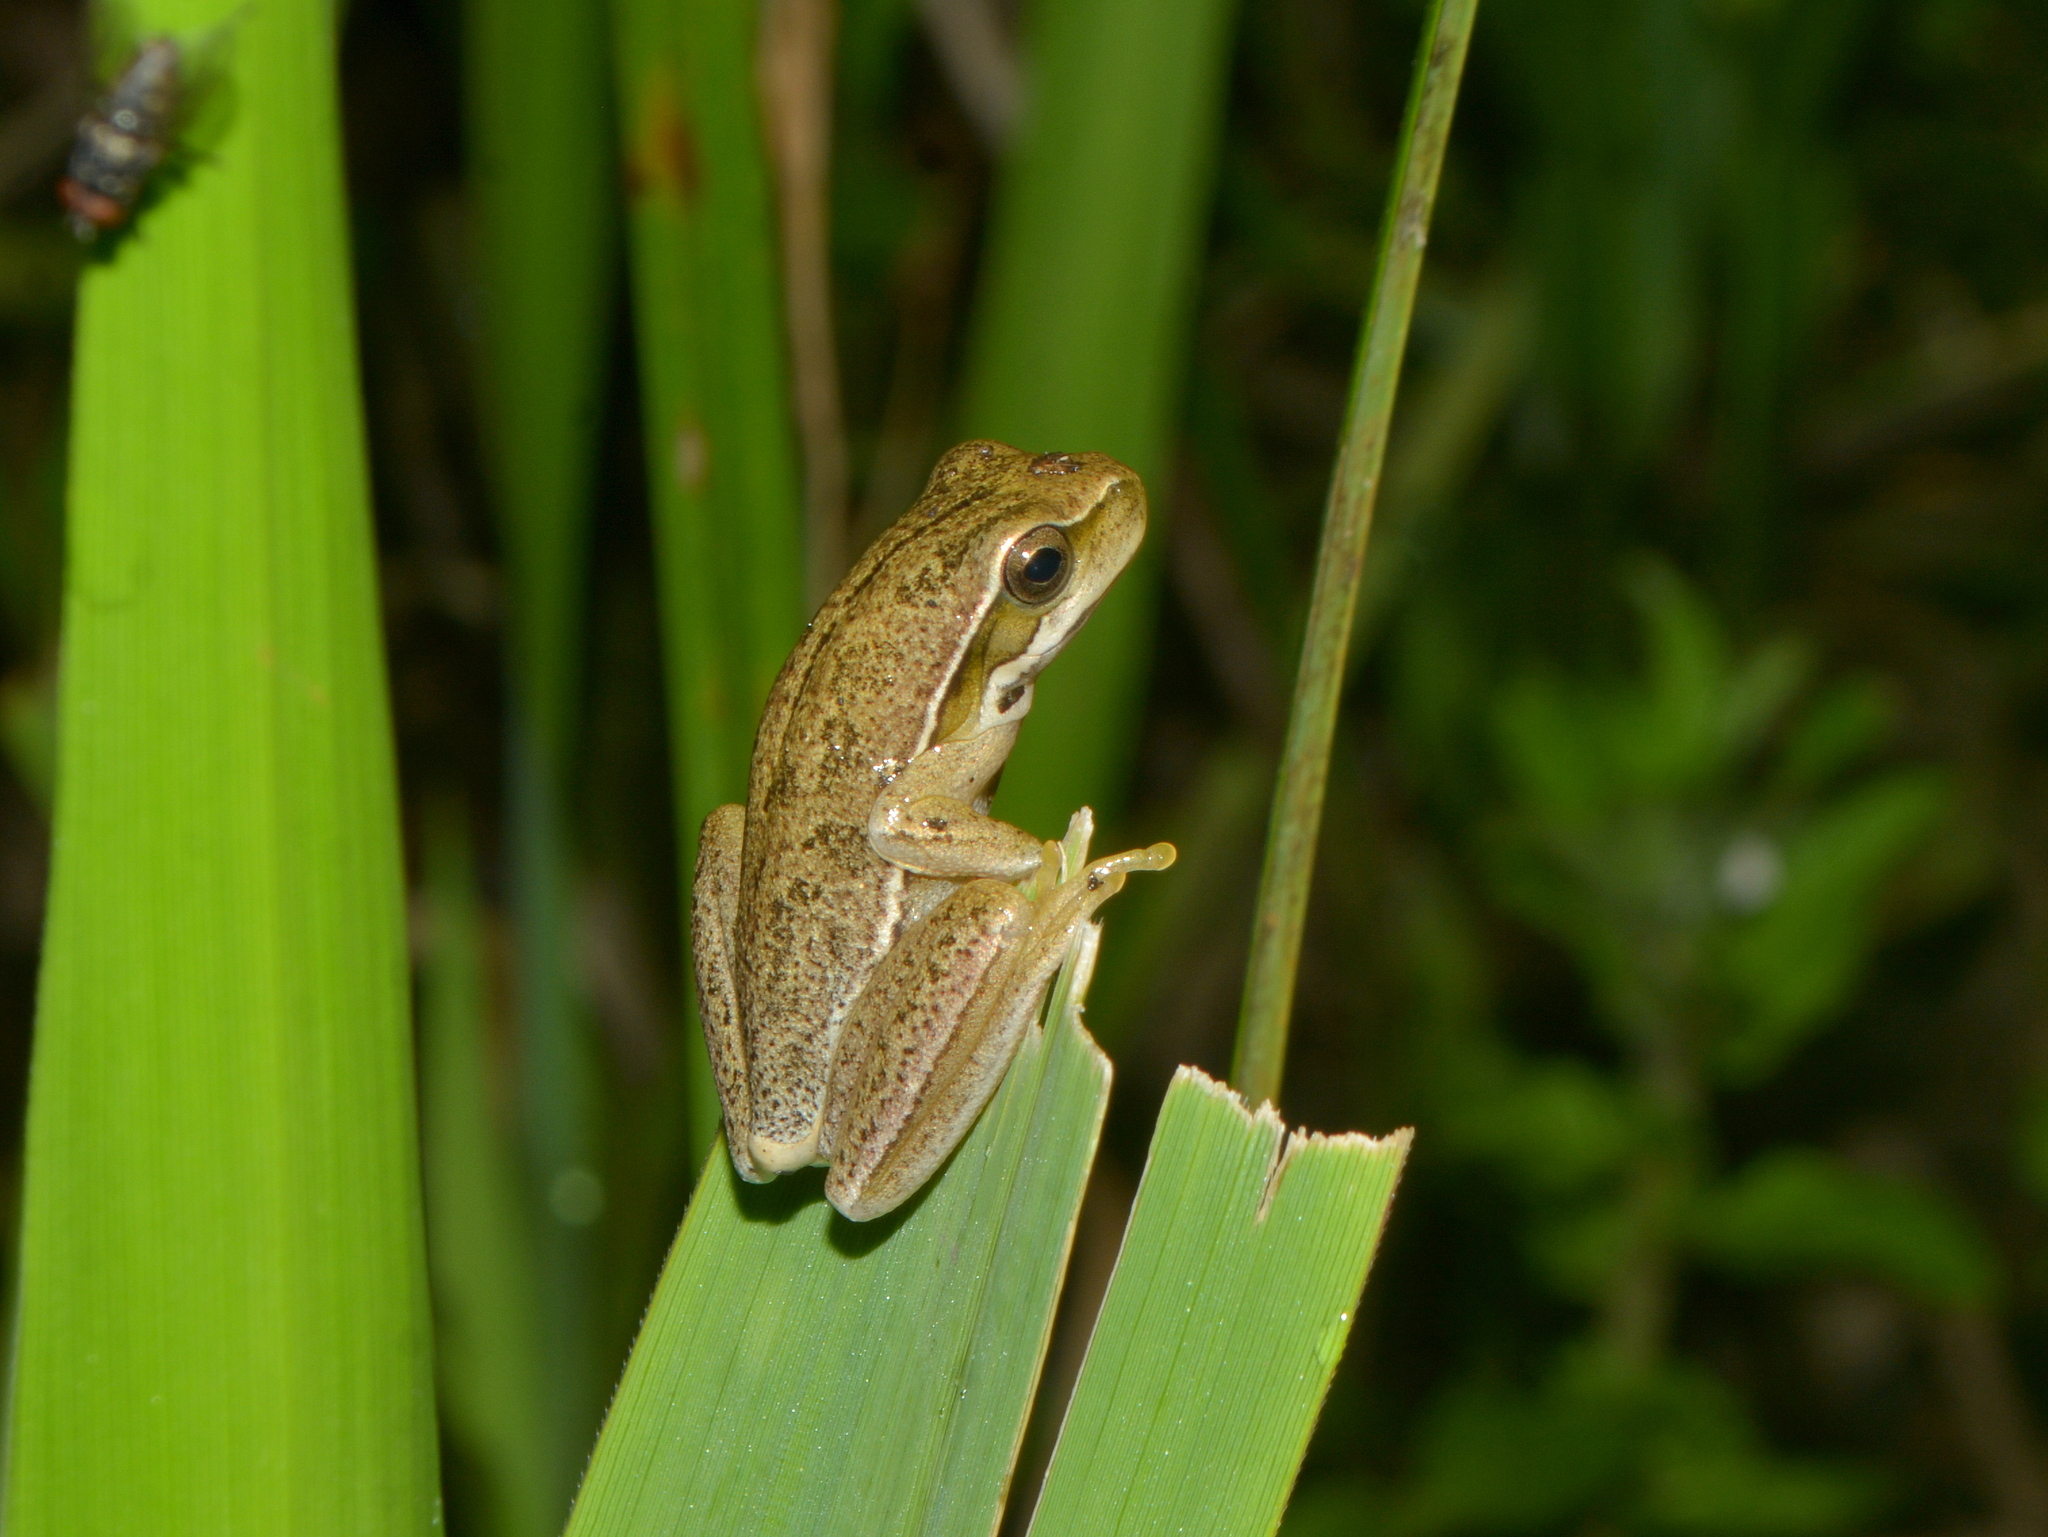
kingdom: Animalia
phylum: Chordata
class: Amphibia
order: Anura
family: Hylidae
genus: Boana
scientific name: Boana pulchella
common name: Montevideo treefrog
